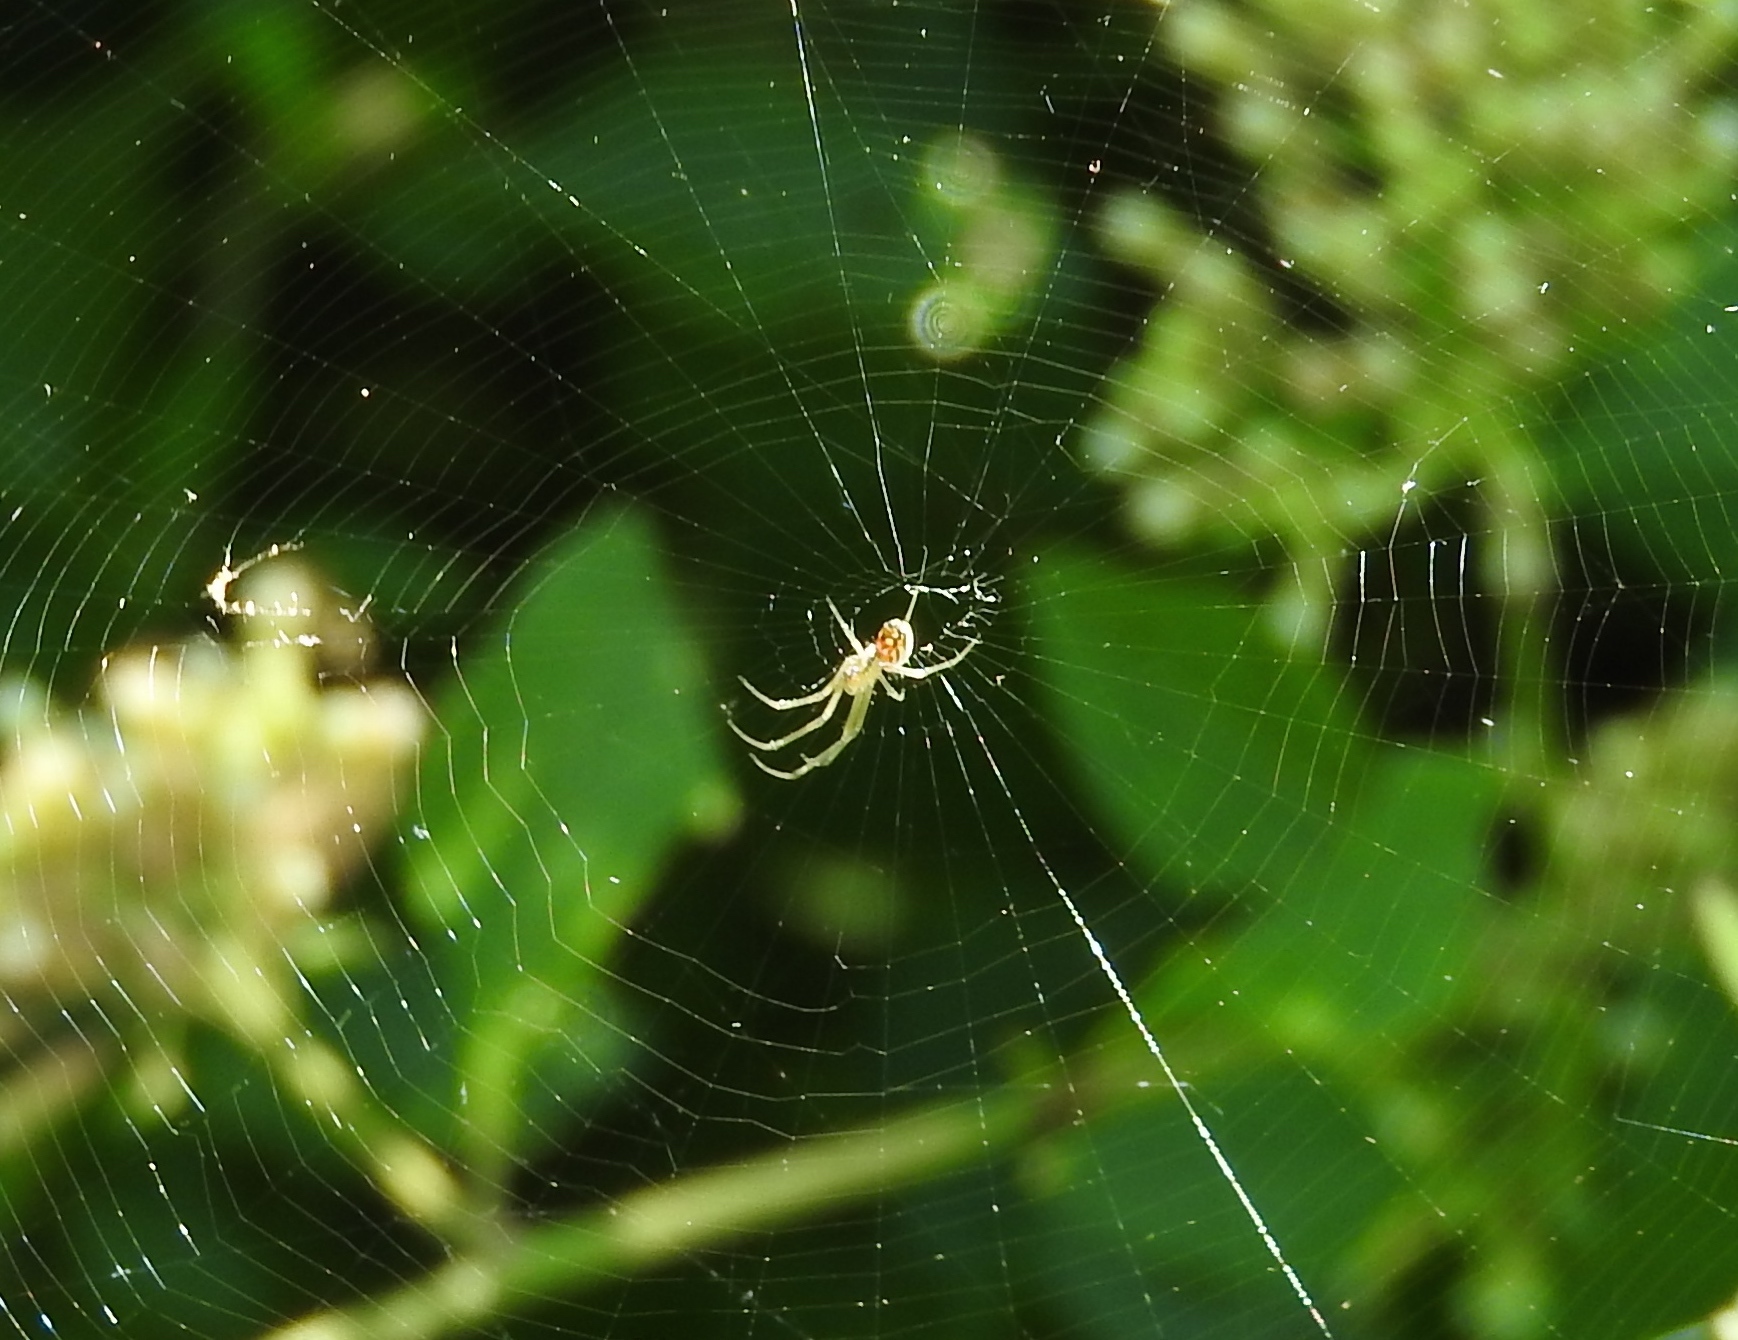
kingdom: Animalia
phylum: Arthropoda
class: Arachnida
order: Araneae
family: Tetragnathidae
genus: Leucauge
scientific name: Leucauge
